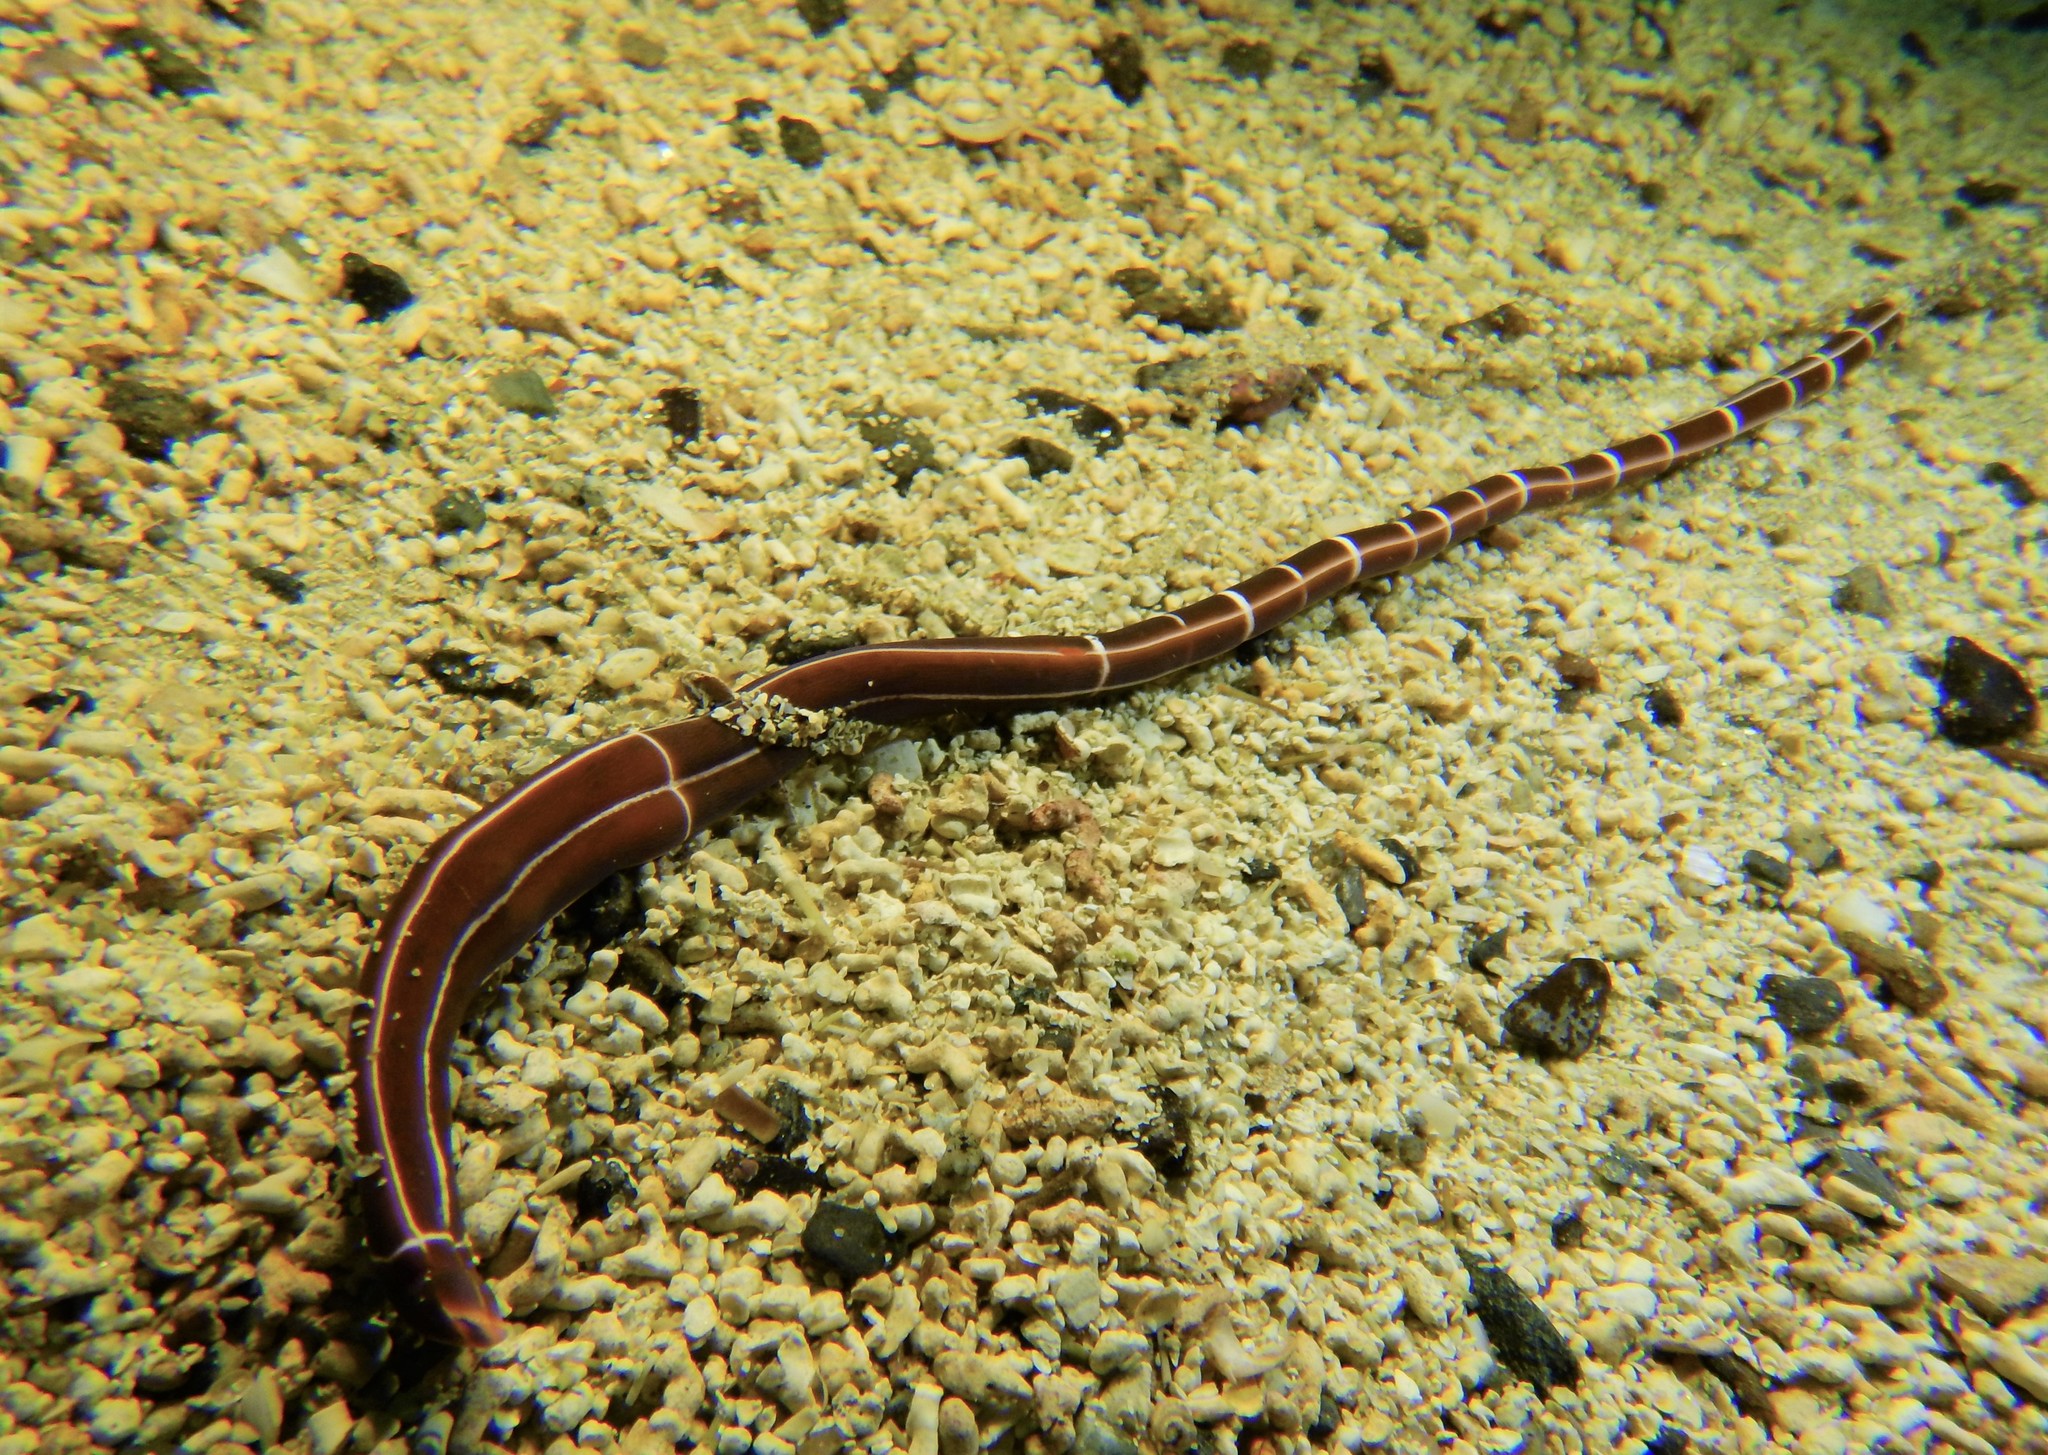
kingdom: Animalia
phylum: Nemertea
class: Palaeonemertea
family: Tubulanidae
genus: Tubulanus
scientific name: Tubulanus superbus
